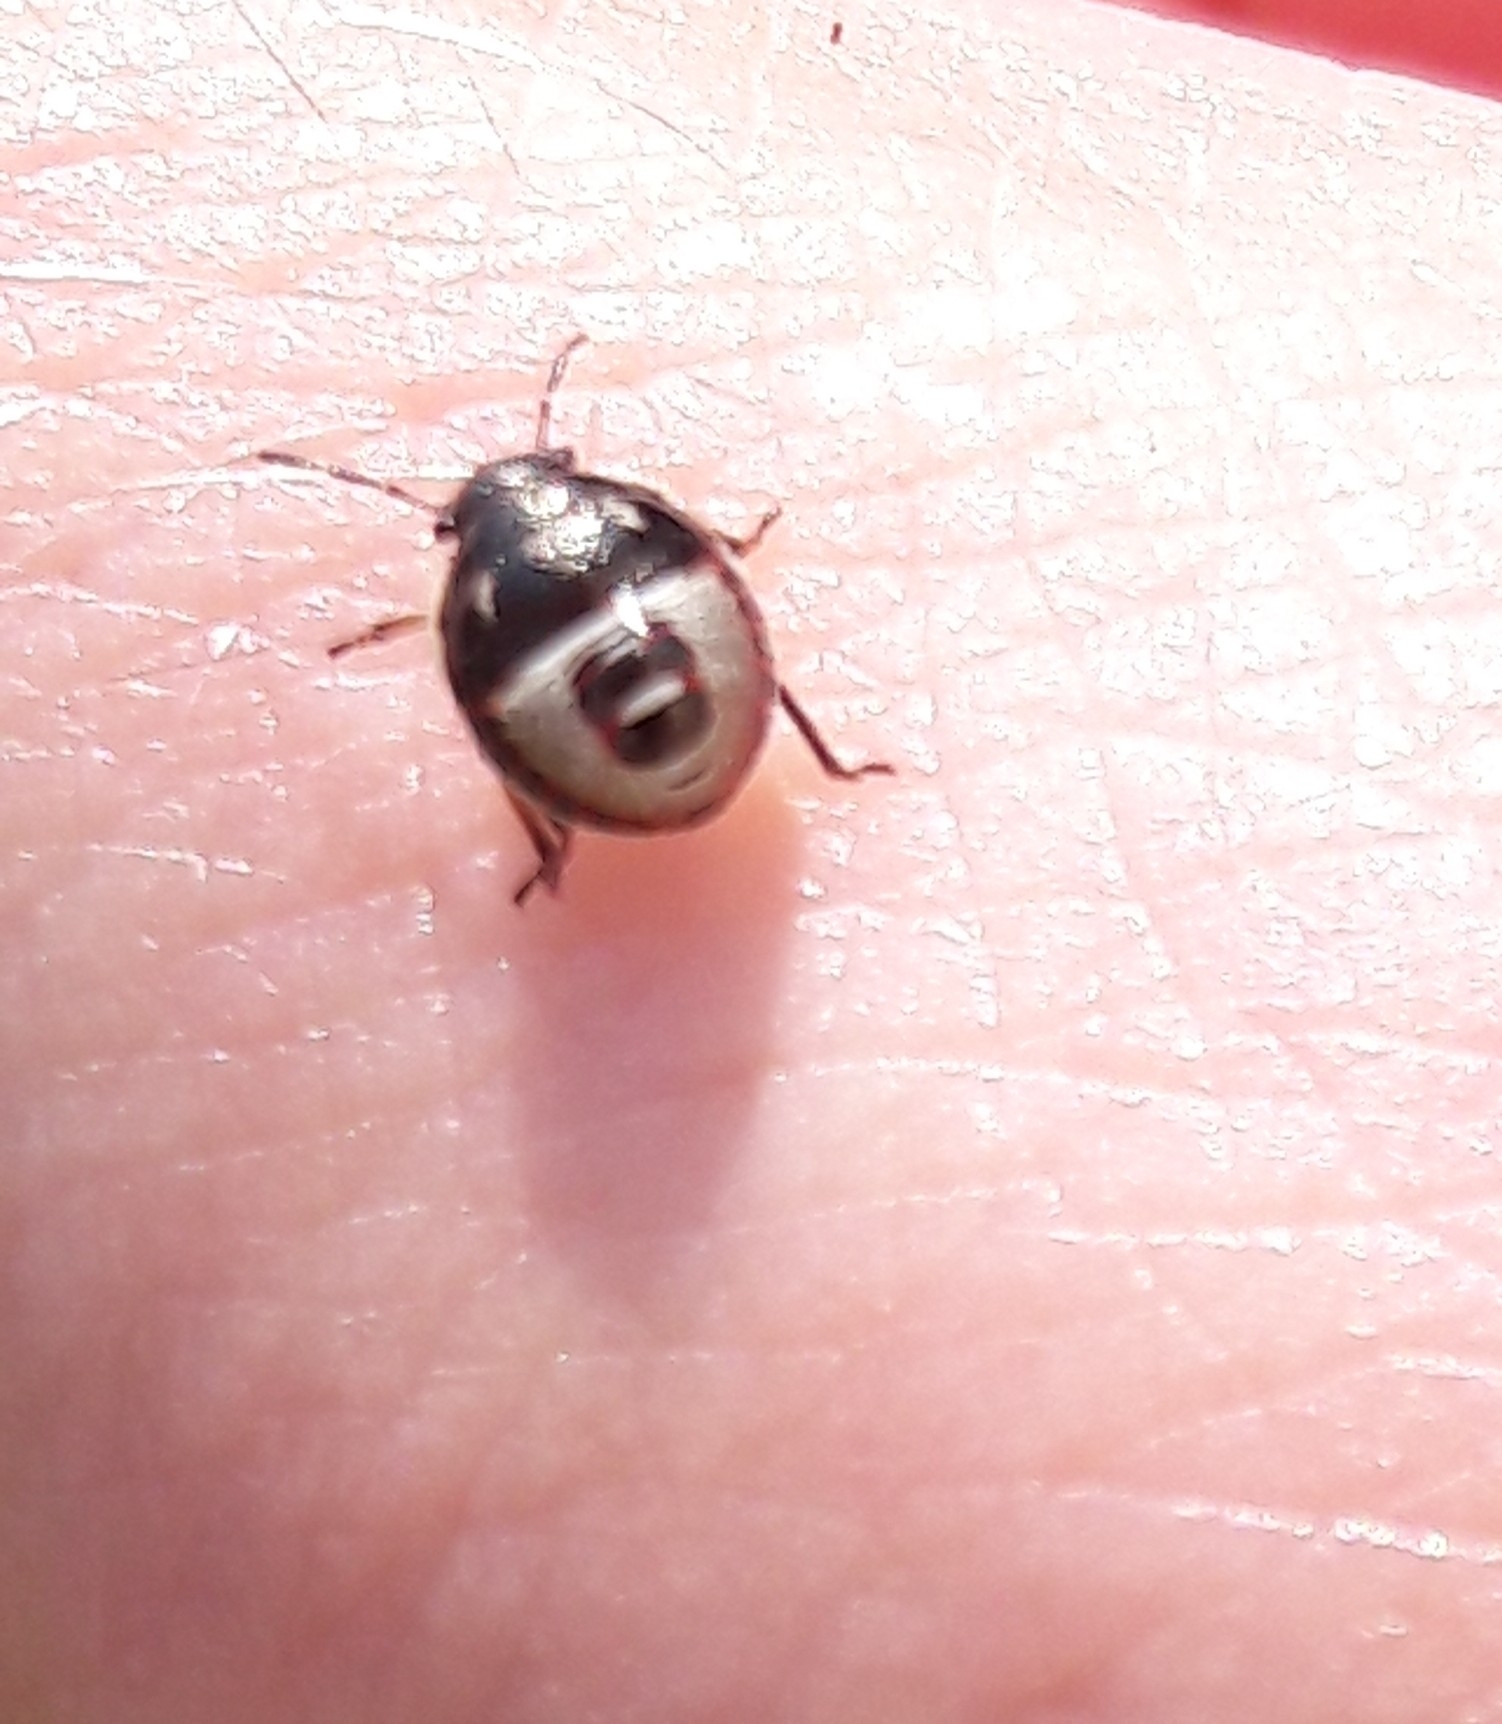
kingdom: Animalia
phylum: Arthropoda
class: Insecta
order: Hemiptera
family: Pentatomidae
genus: Holcostethus
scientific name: Holcostethus sphacelatus
